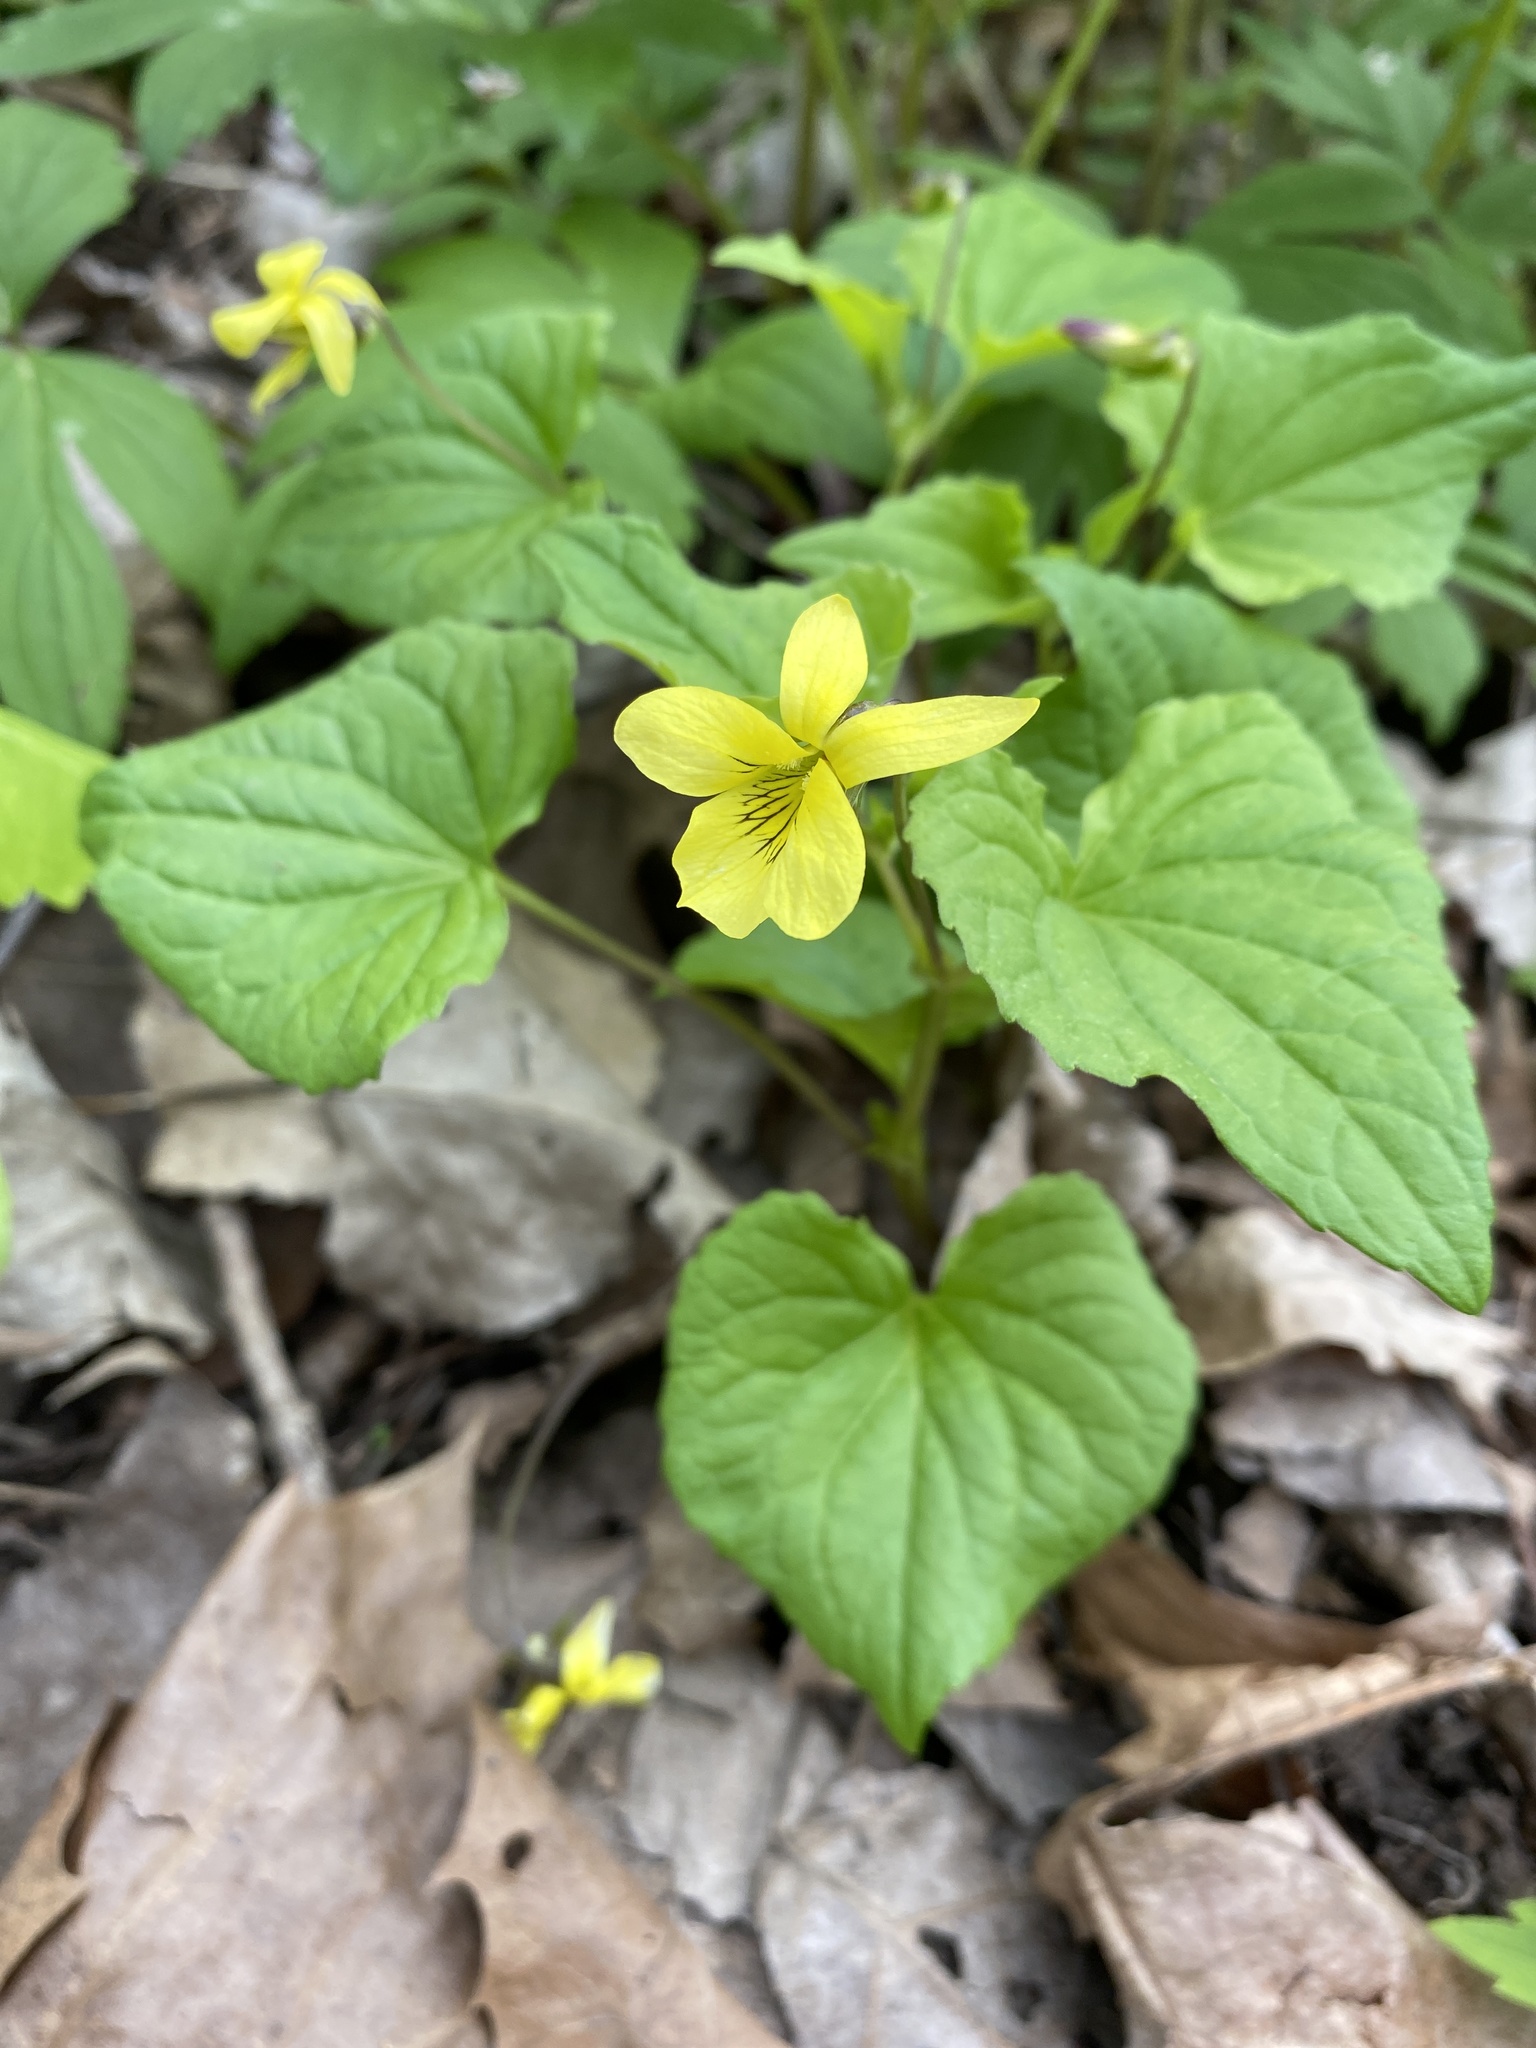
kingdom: Plantae
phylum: Tracheophyta
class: Magnoliopsida
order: Malpighiales
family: Violaceae
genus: Viola
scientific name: Viola eriocarpa
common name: Smooth yellow violet
